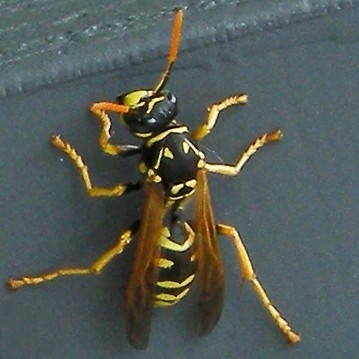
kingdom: Animalia
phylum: Arthropoda
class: Insecta
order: Hymenoptera
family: Eumenidae
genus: Polistes
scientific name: Polistes dominula
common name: Paper wasp
